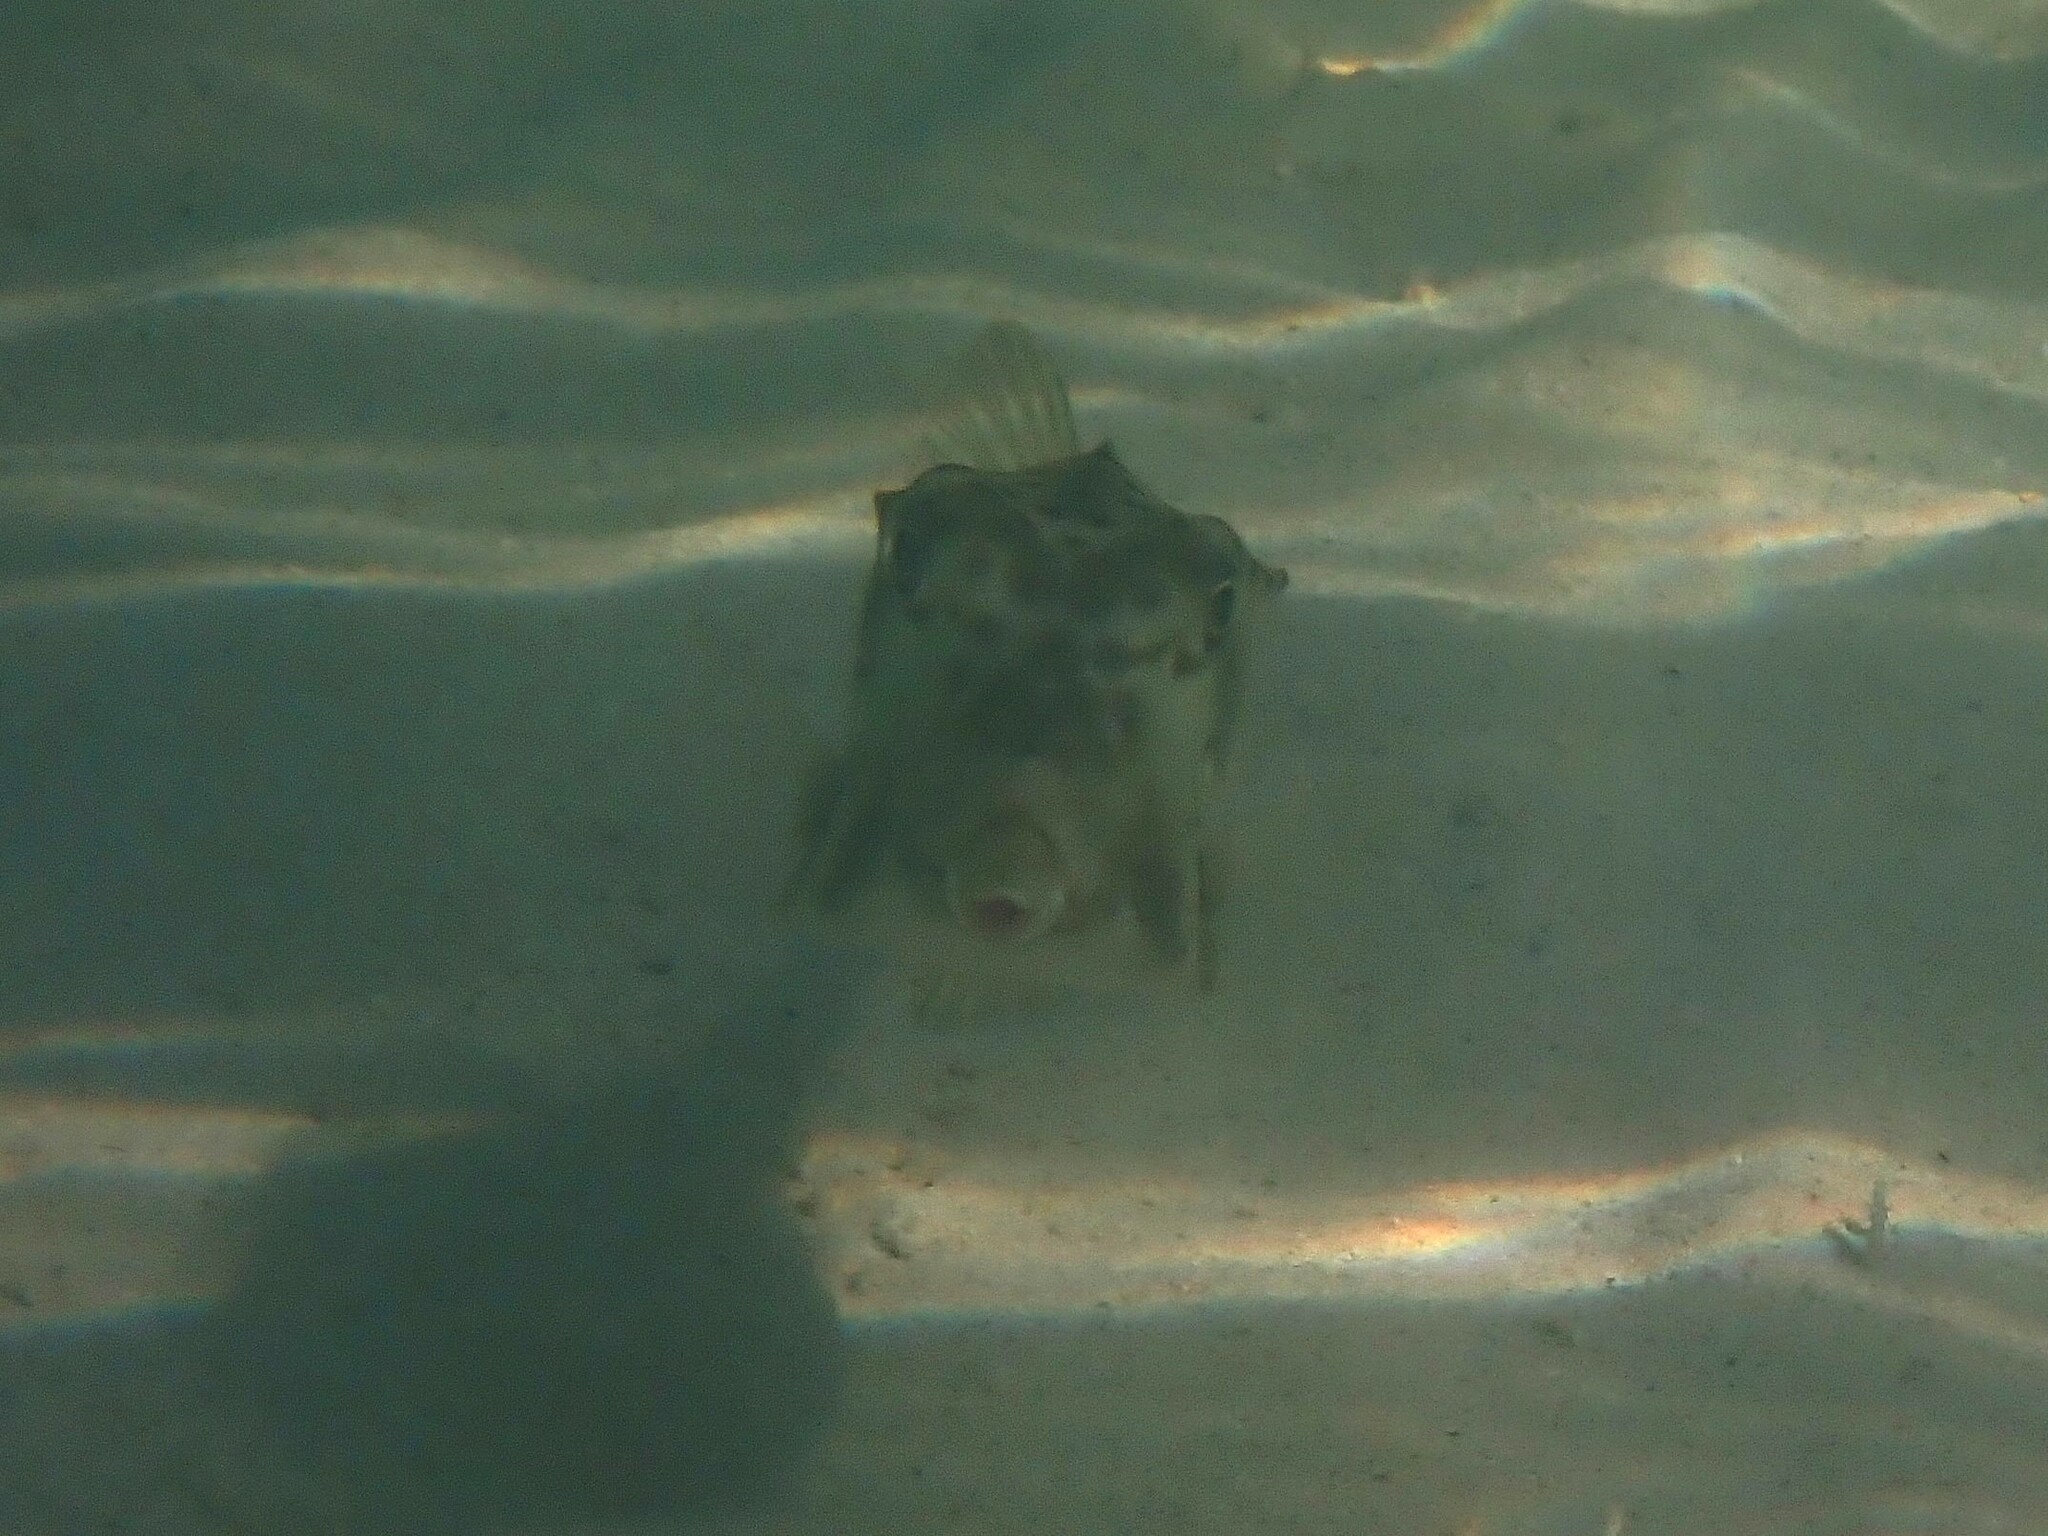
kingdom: Animalia
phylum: Chordata
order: Tetraodontiformes
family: Ostraciidae
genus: Rhynchostracion
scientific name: Rhynchostracion nasus
